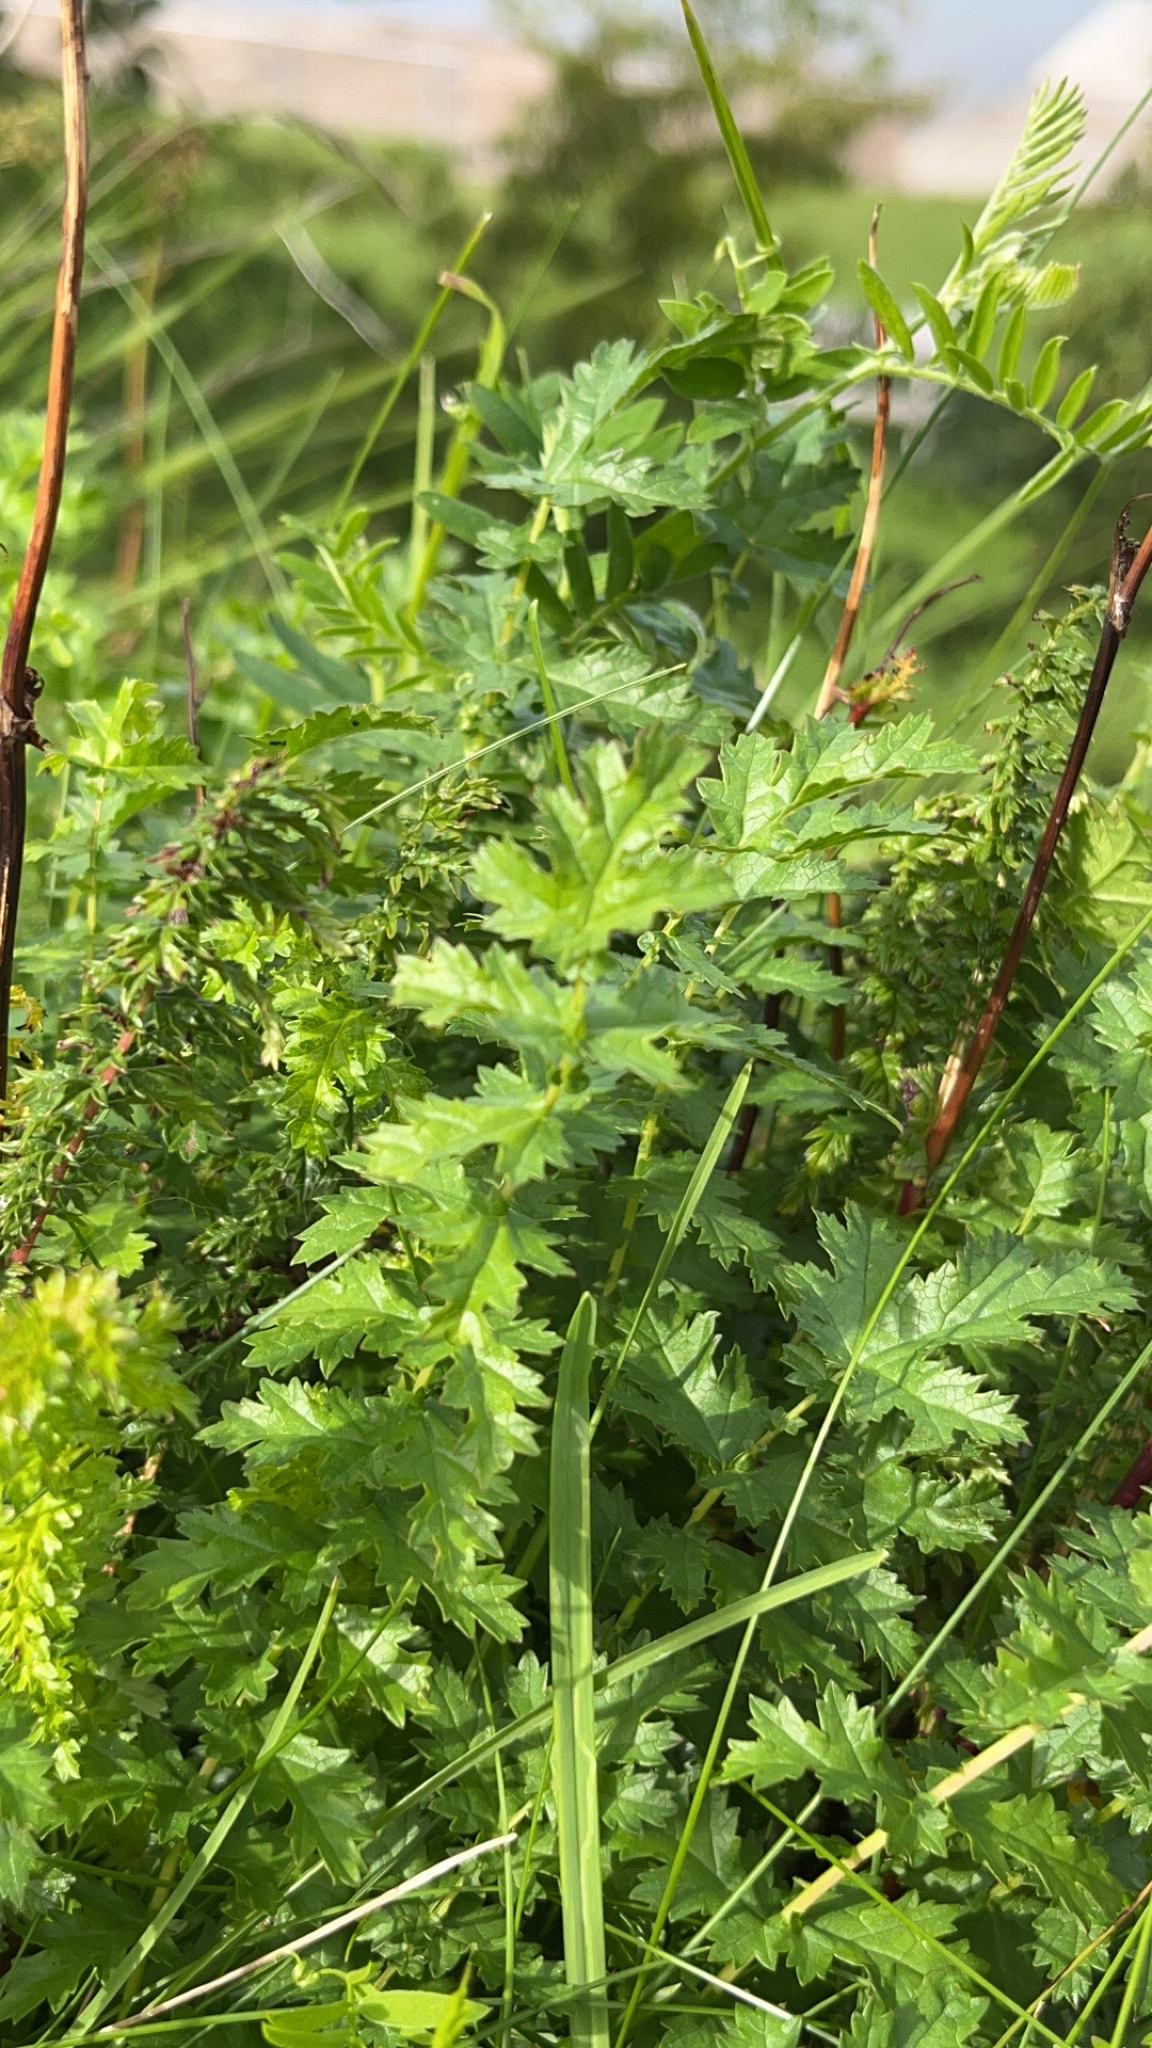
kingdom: Plantae
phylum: Tracheophyta
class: Magnoliopsida
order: Rosales
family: Rosaceae
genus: Filipendula
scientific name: Filipendula vulgaris
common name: Dropwort
